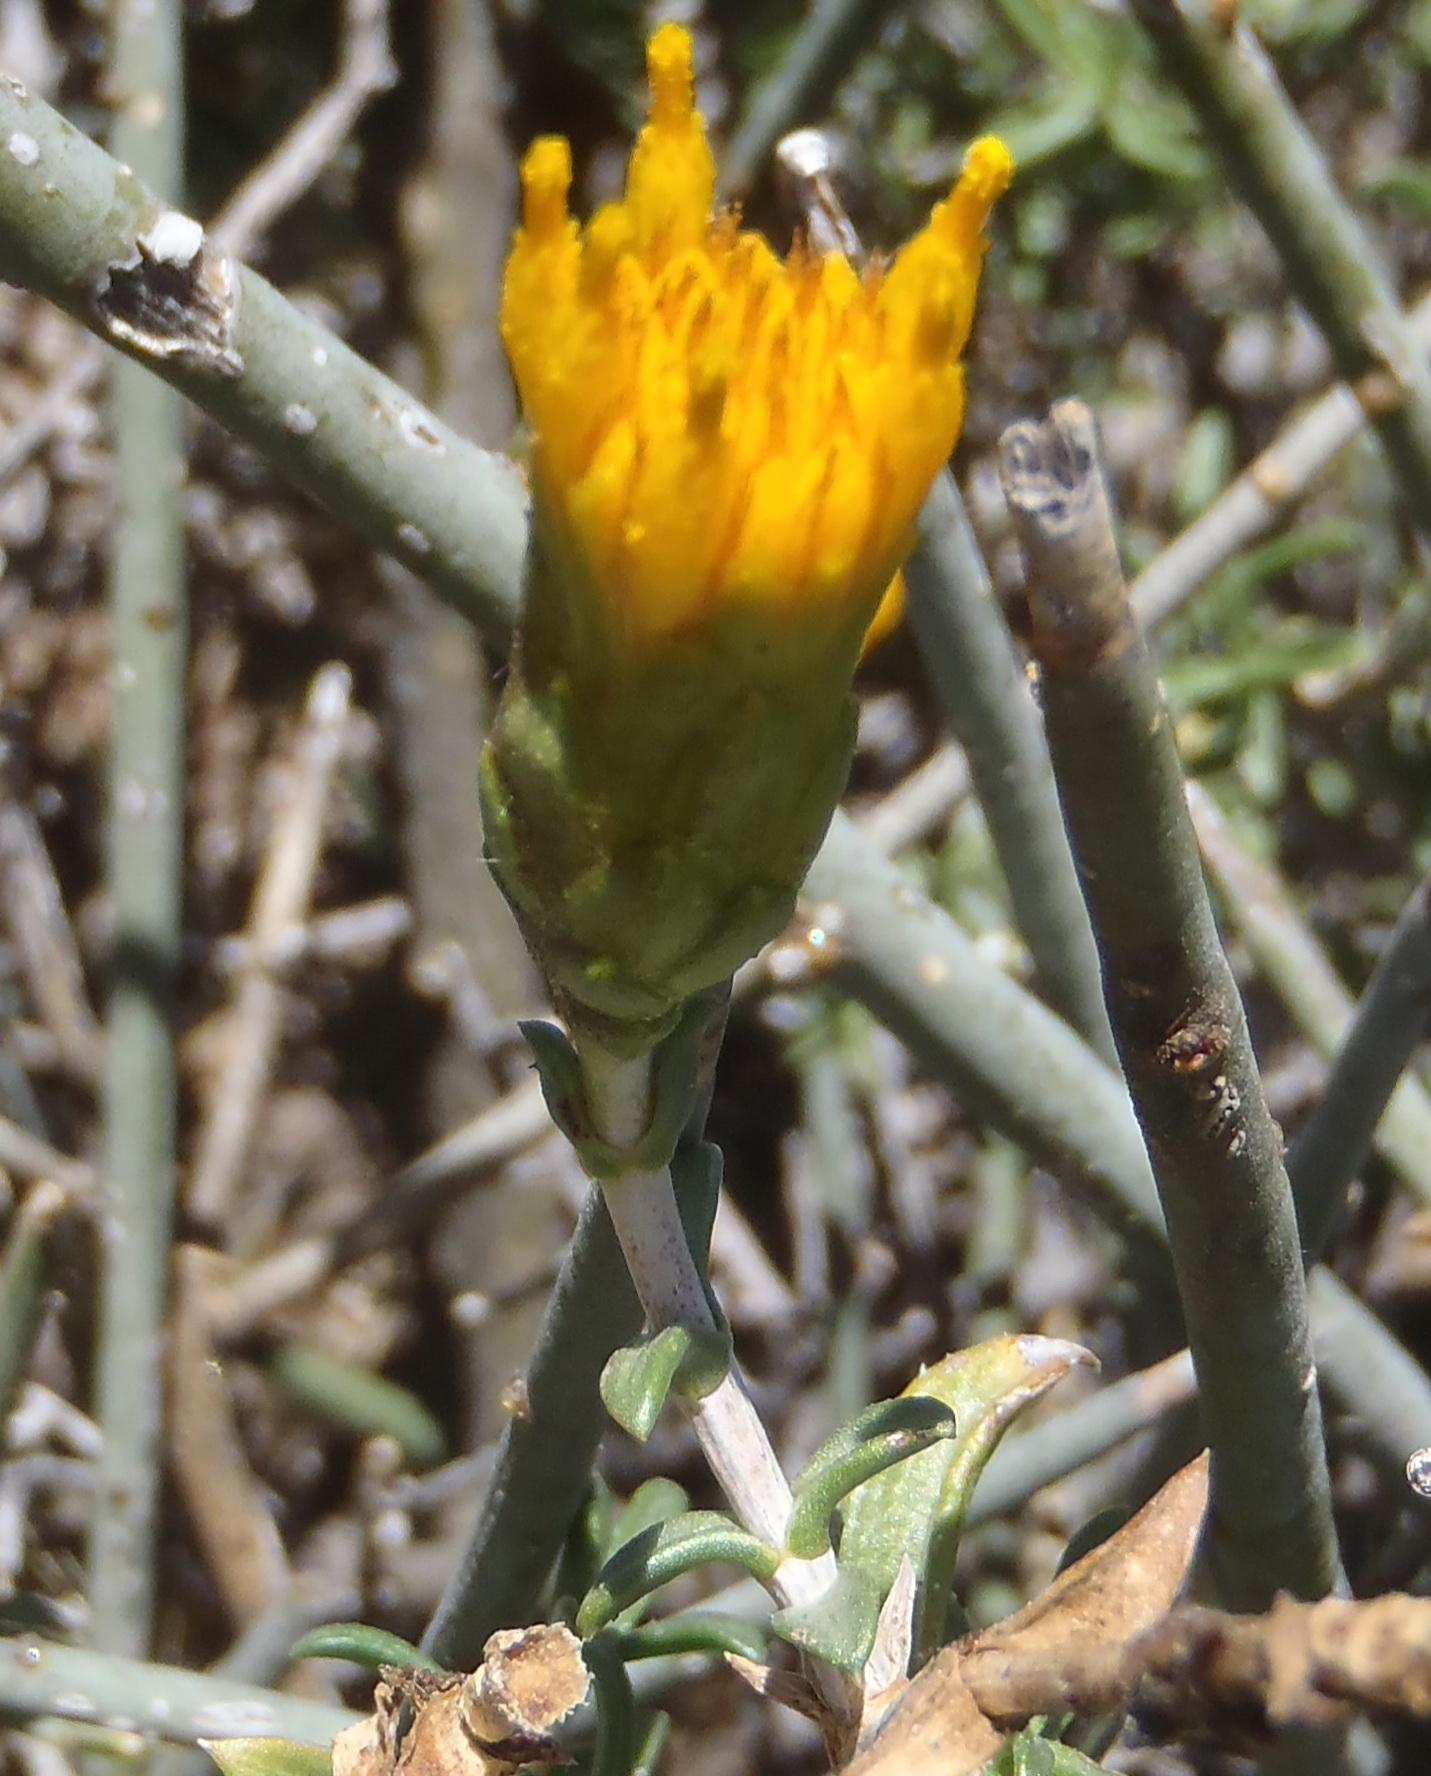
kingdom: Plantae
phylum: Tracheophyta
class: Magnoliopsida
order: Asterales
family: Asteraceae
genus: Pteronia
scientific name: Pteronia viscosa
